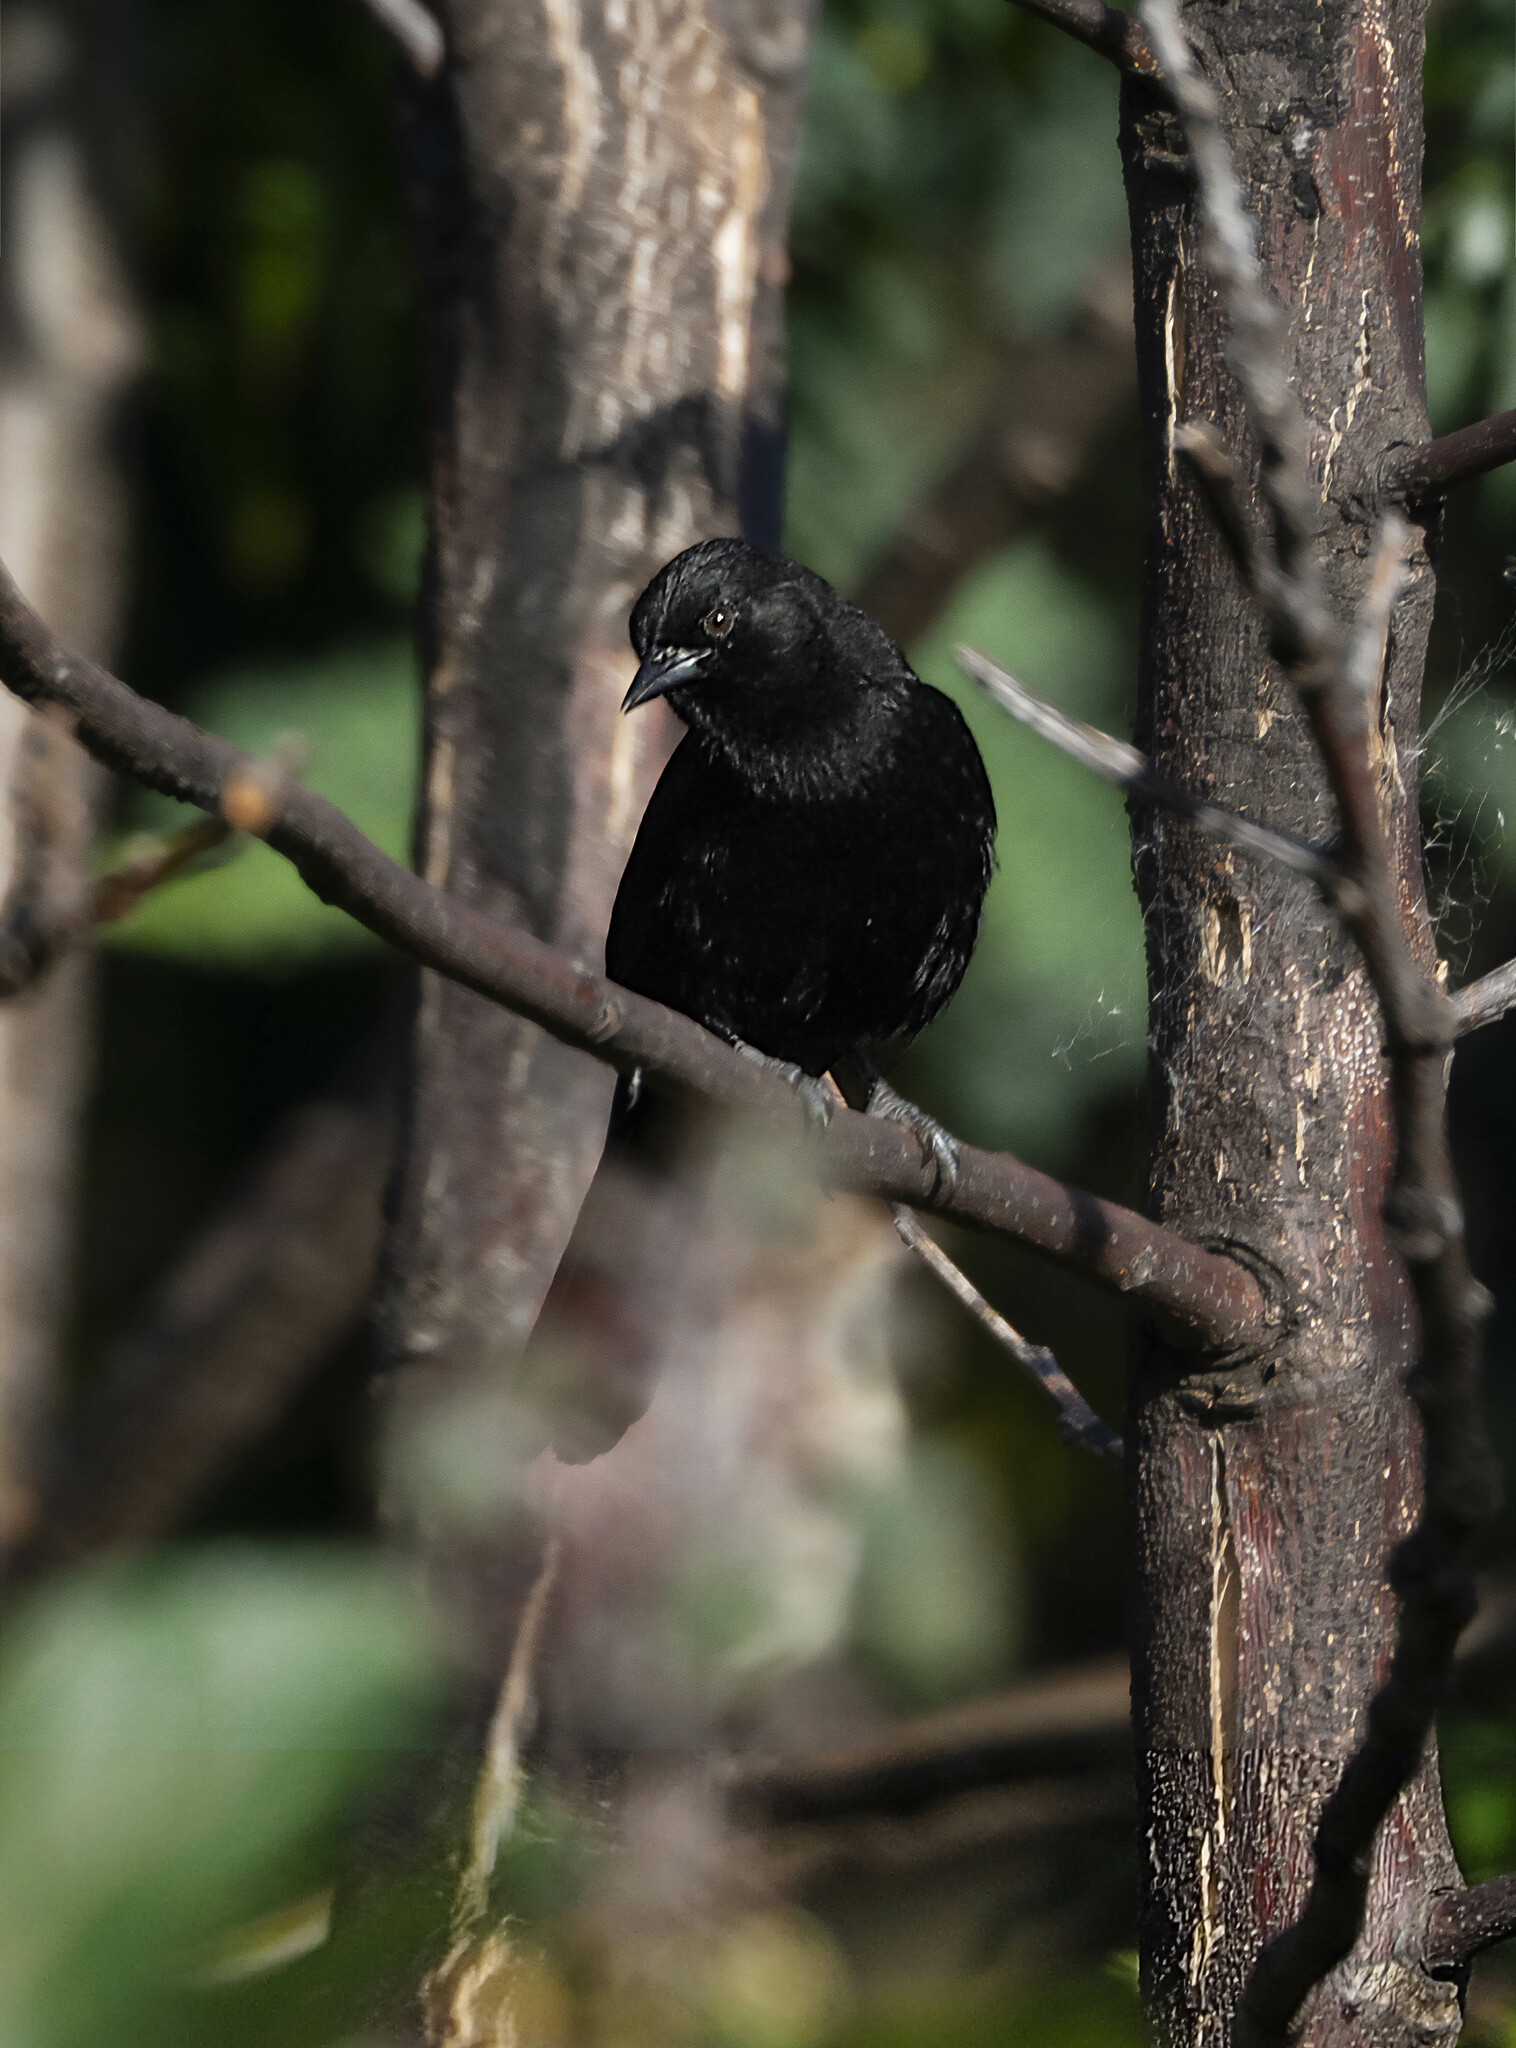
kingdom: Animalia
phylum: Chordata
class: Aves
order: Passeriformes
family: Icteridae
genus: Icterus
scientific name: Icterus cayanensis
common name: Epaulet oriole
